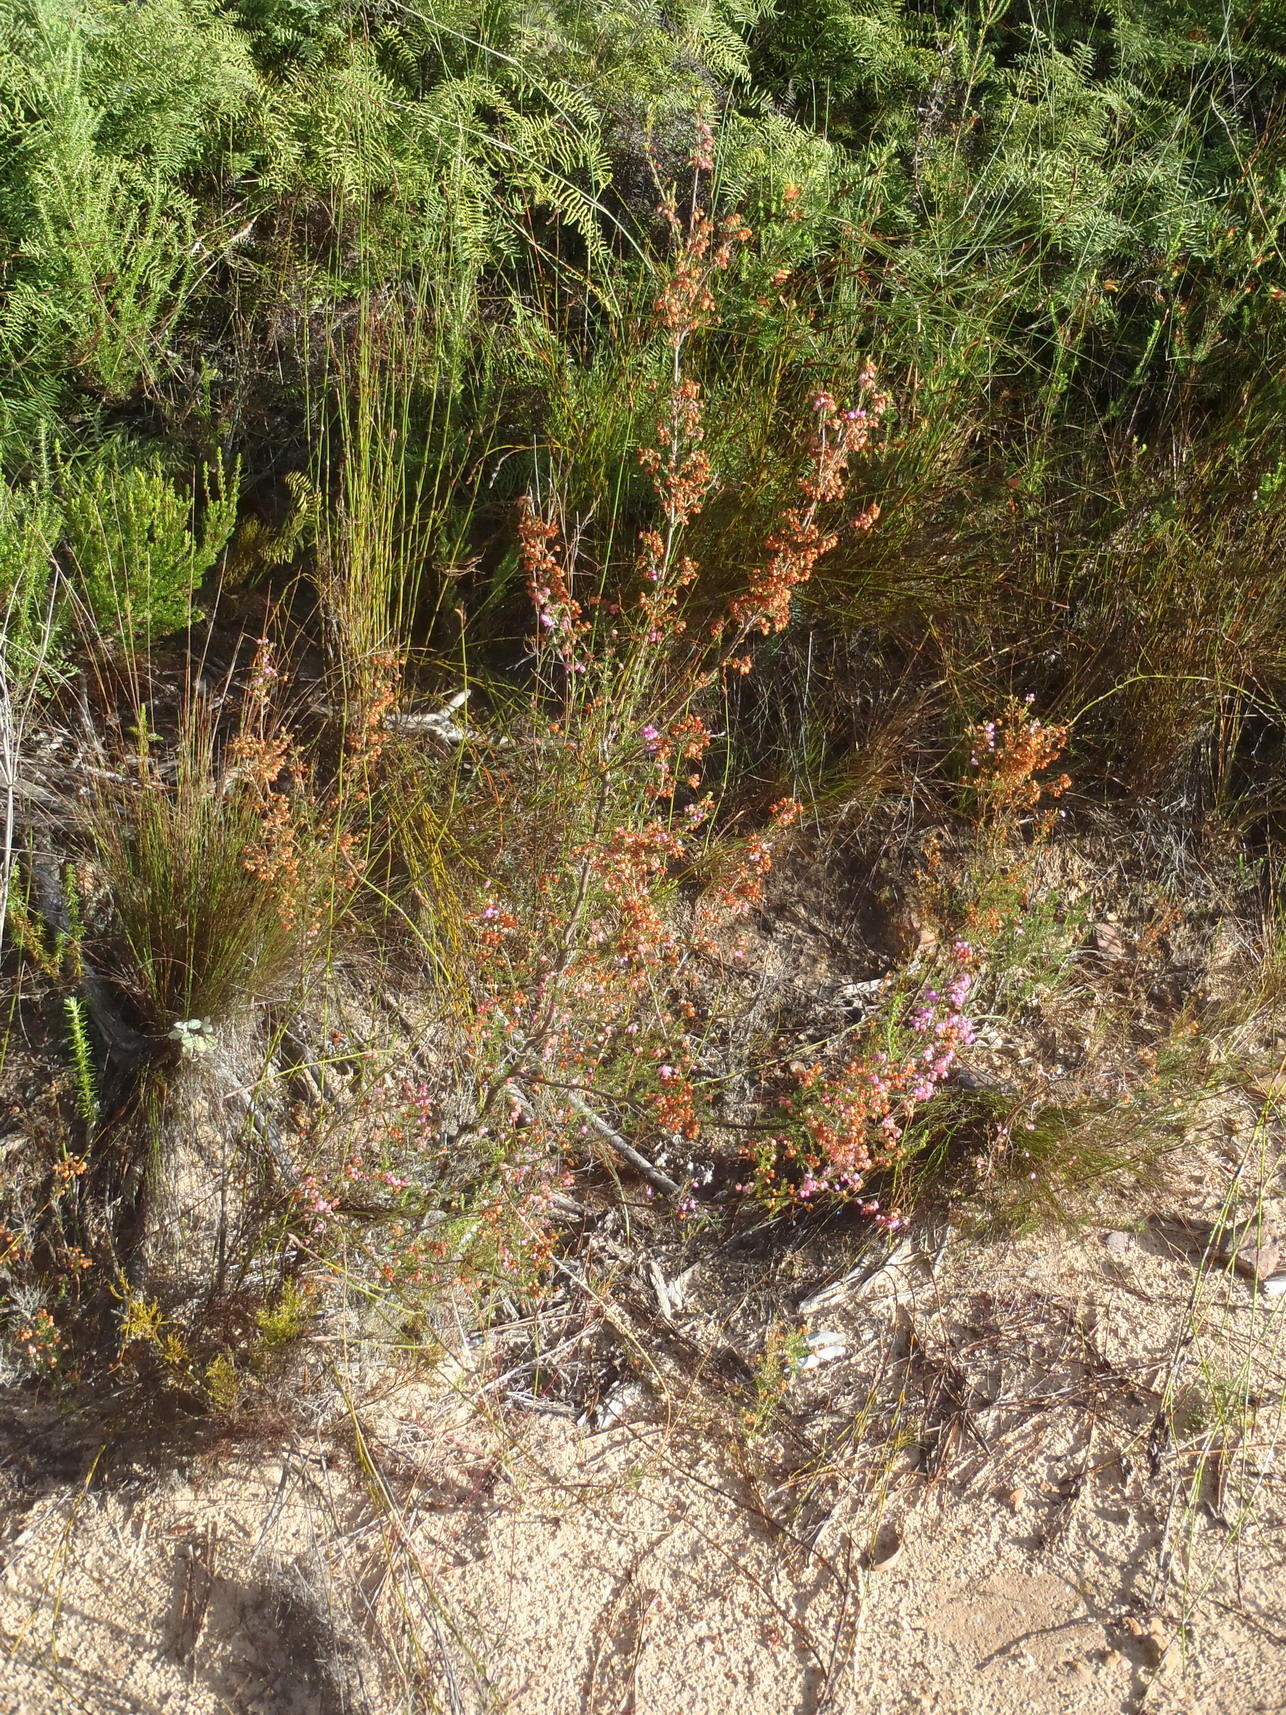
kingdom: Plantae
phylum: Tracheophyta
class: Magnoliopsida
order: Ericales
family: Ericaceae
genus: Erica
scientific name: Erica gracilis
